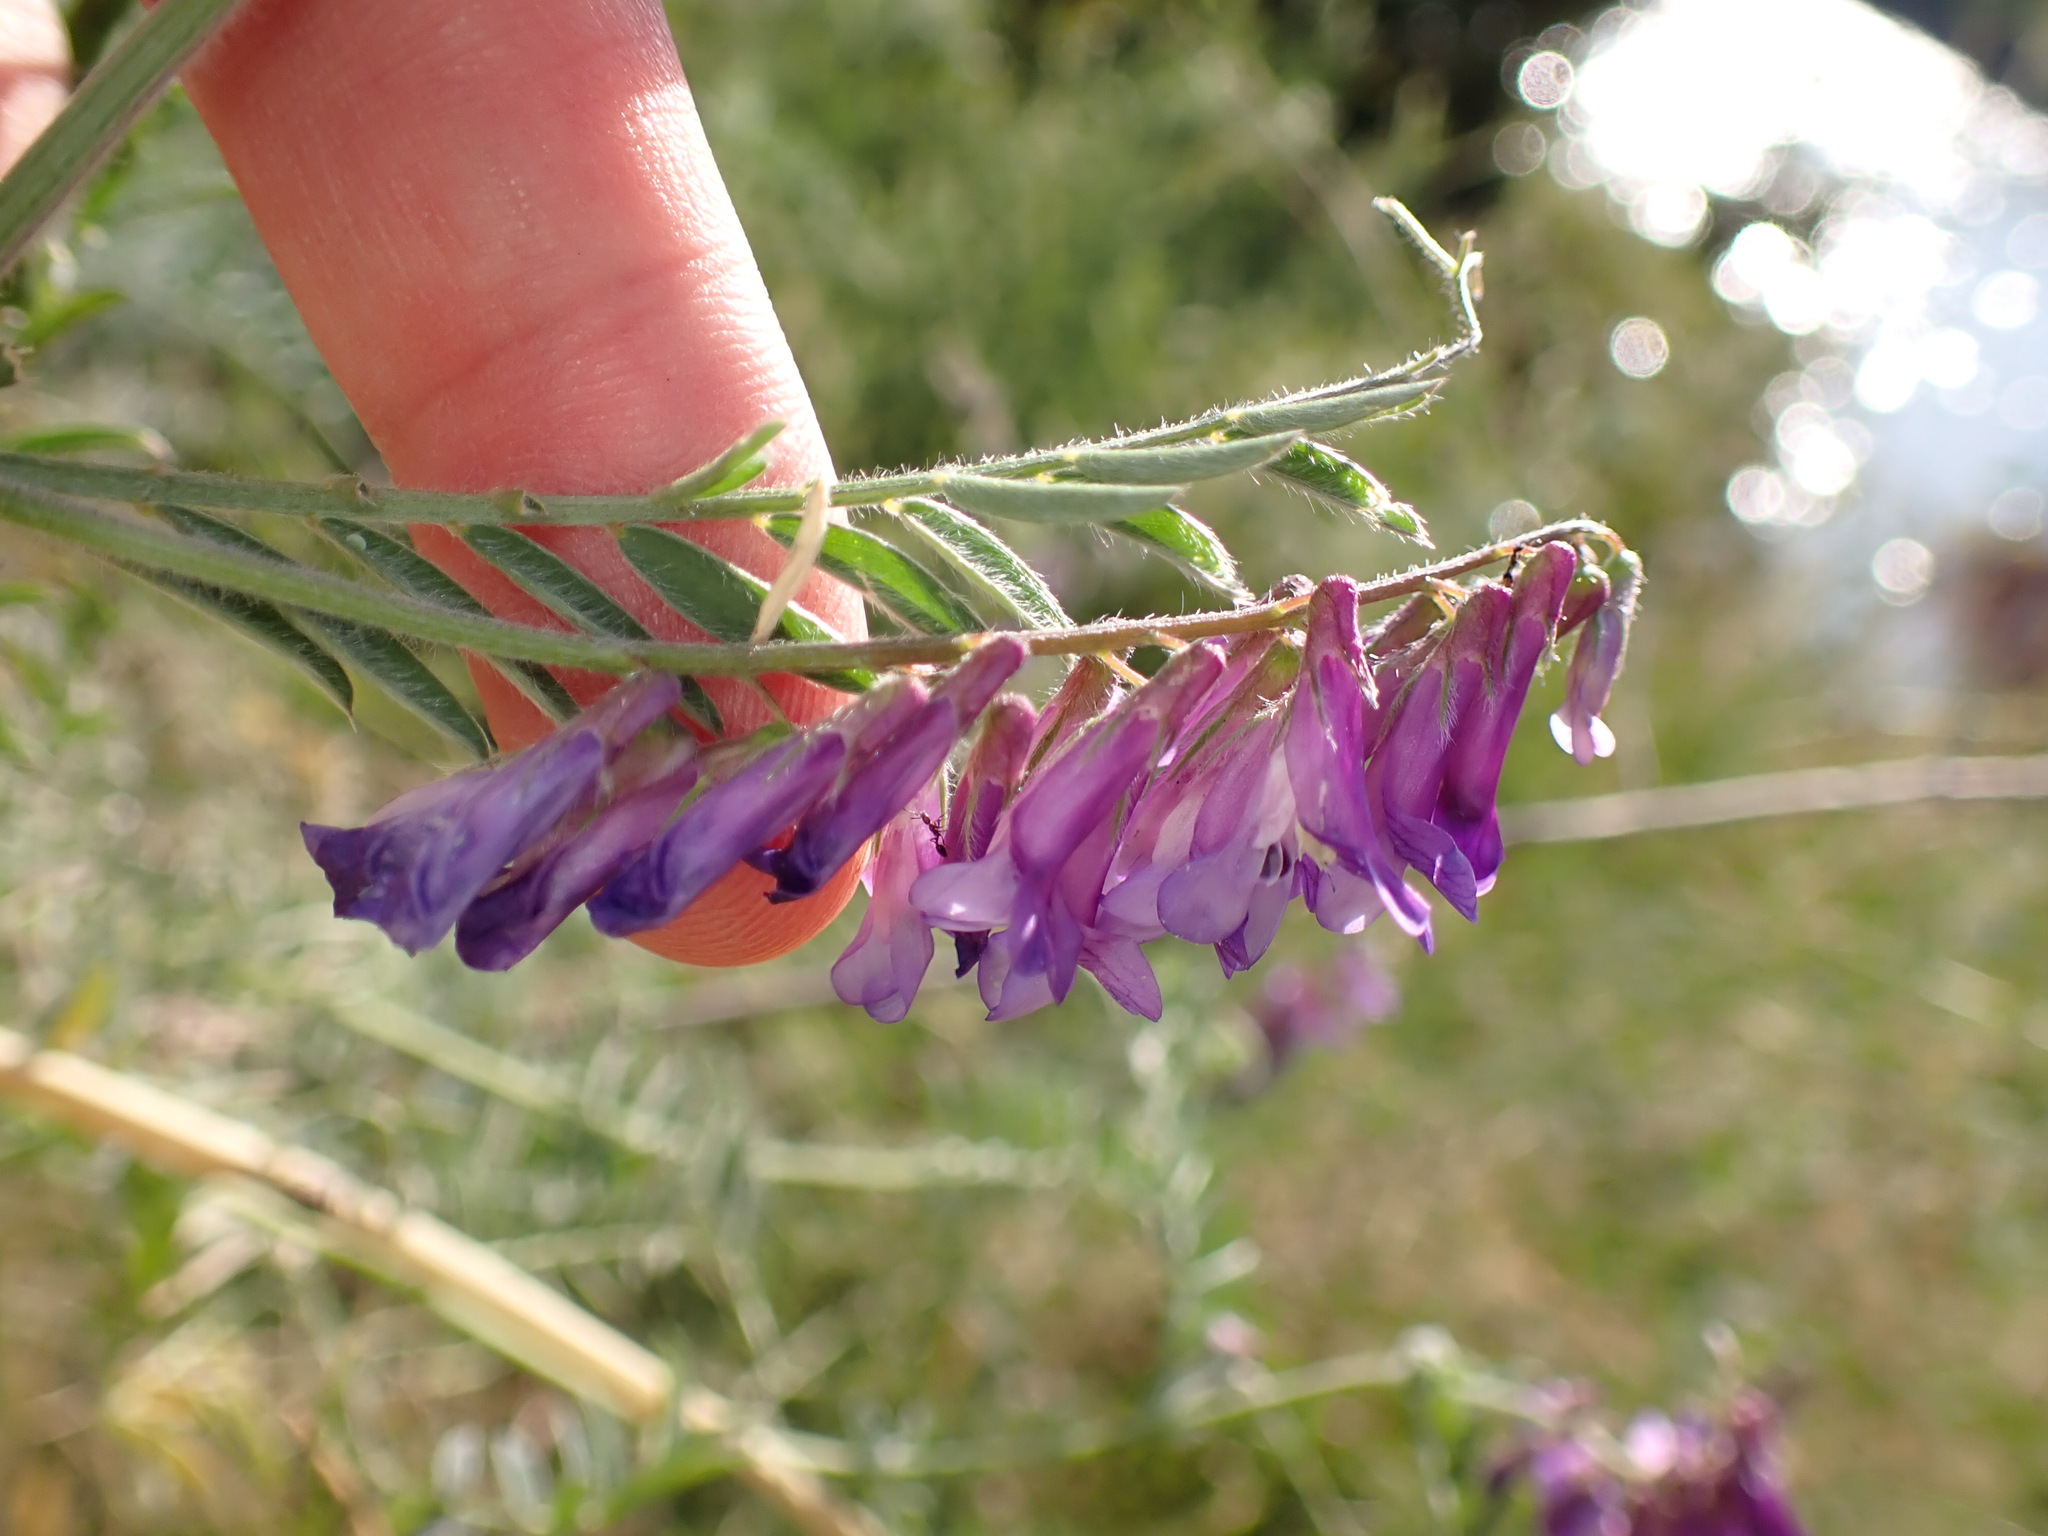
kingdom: Plantae
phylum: Tracheophyta
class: Magnoliopsida
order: Fabales
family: Fabaceae
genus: Vicia
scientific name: Vicia villosa
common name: Fodder vetch
